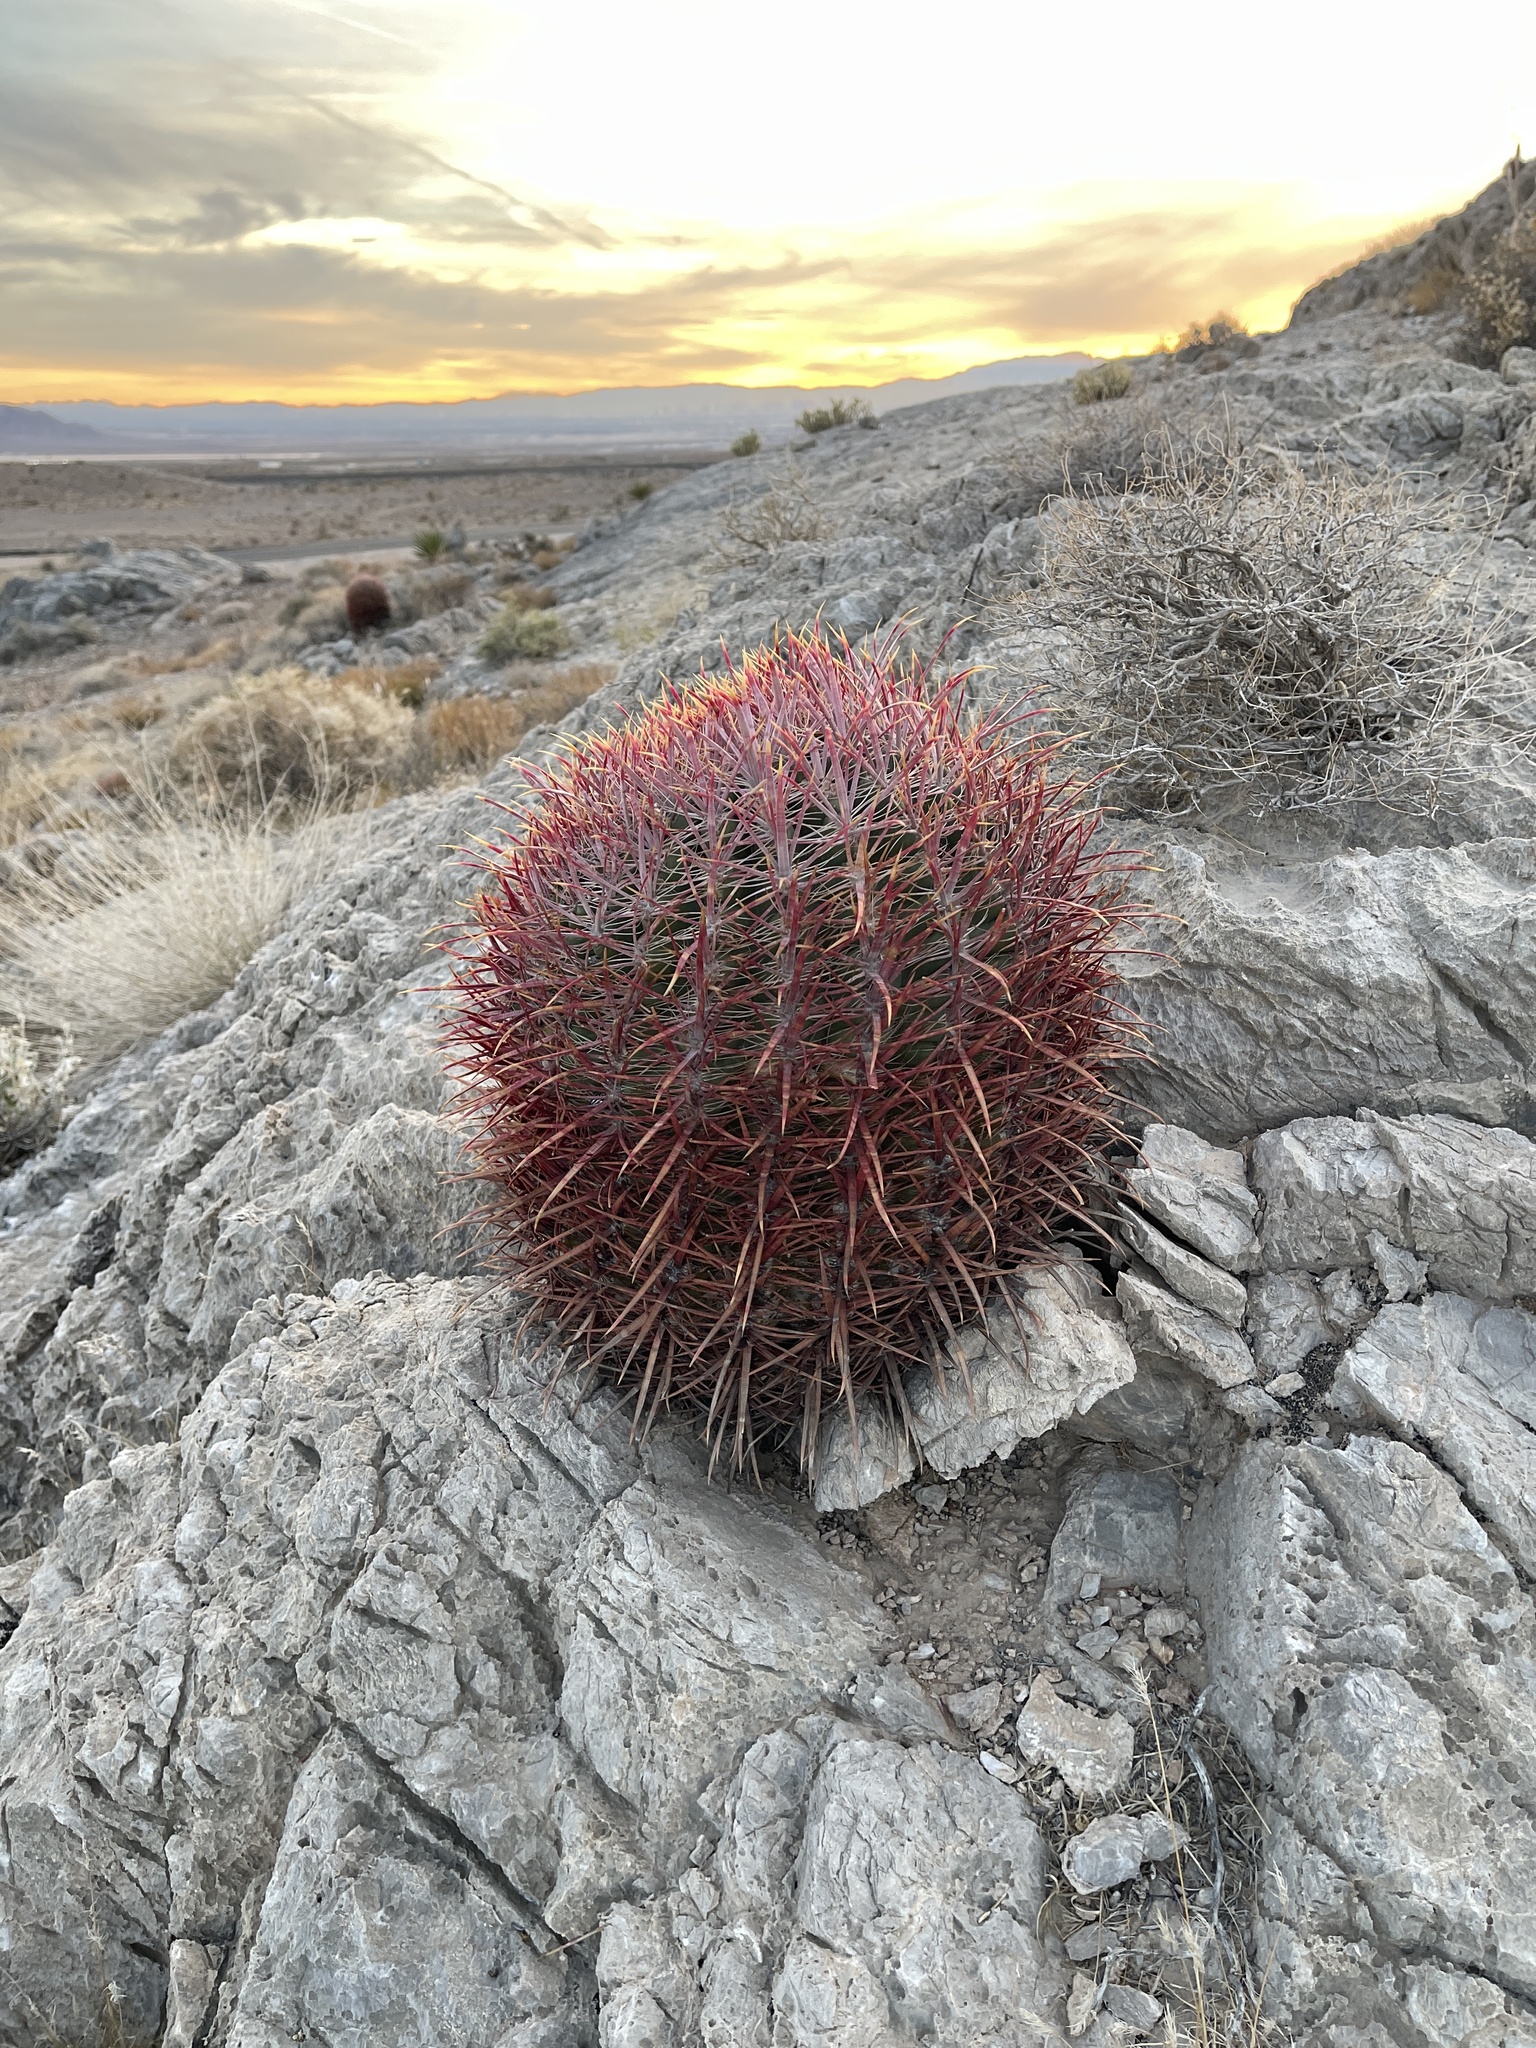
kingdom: Plantae
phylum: Tracheophyta
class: Magnoliopsida
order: Caryophyllales
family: Cactaceae
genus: Ferocactus
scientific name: Ferocactus cylindraceus
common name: California barrel cactus
